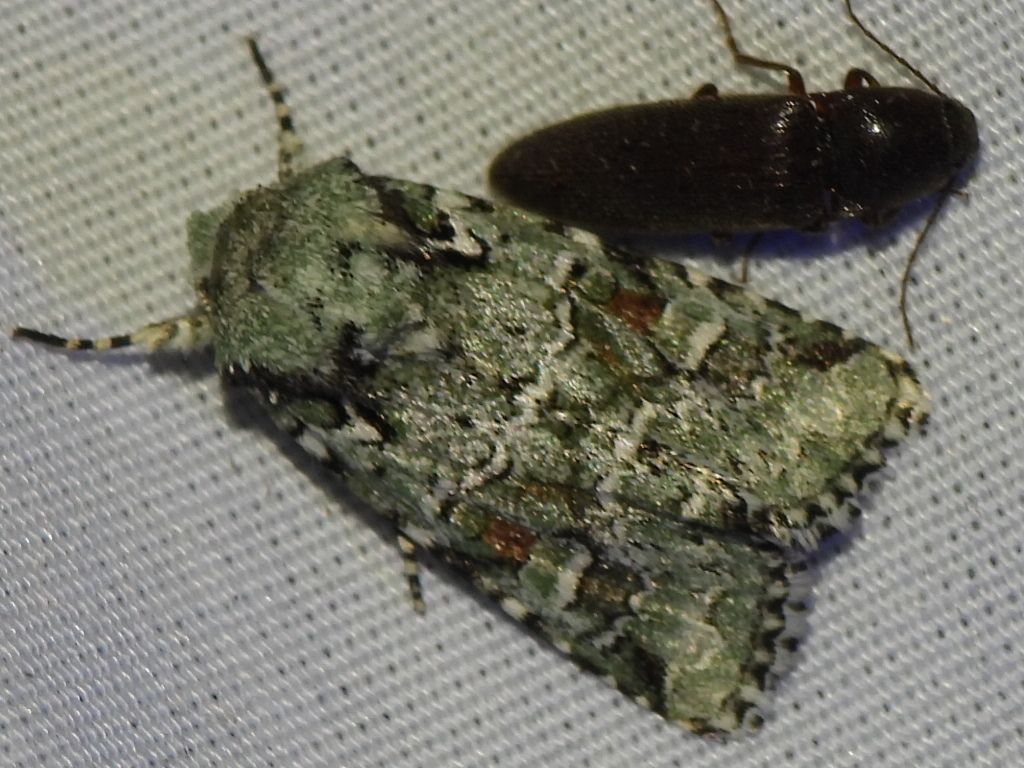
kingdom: Animalia
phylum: Arthropoda
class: Insecta
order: Lepidoptera
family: Noctuidae
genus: Lacinipolia
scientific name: Lacinipolia laudabilis
